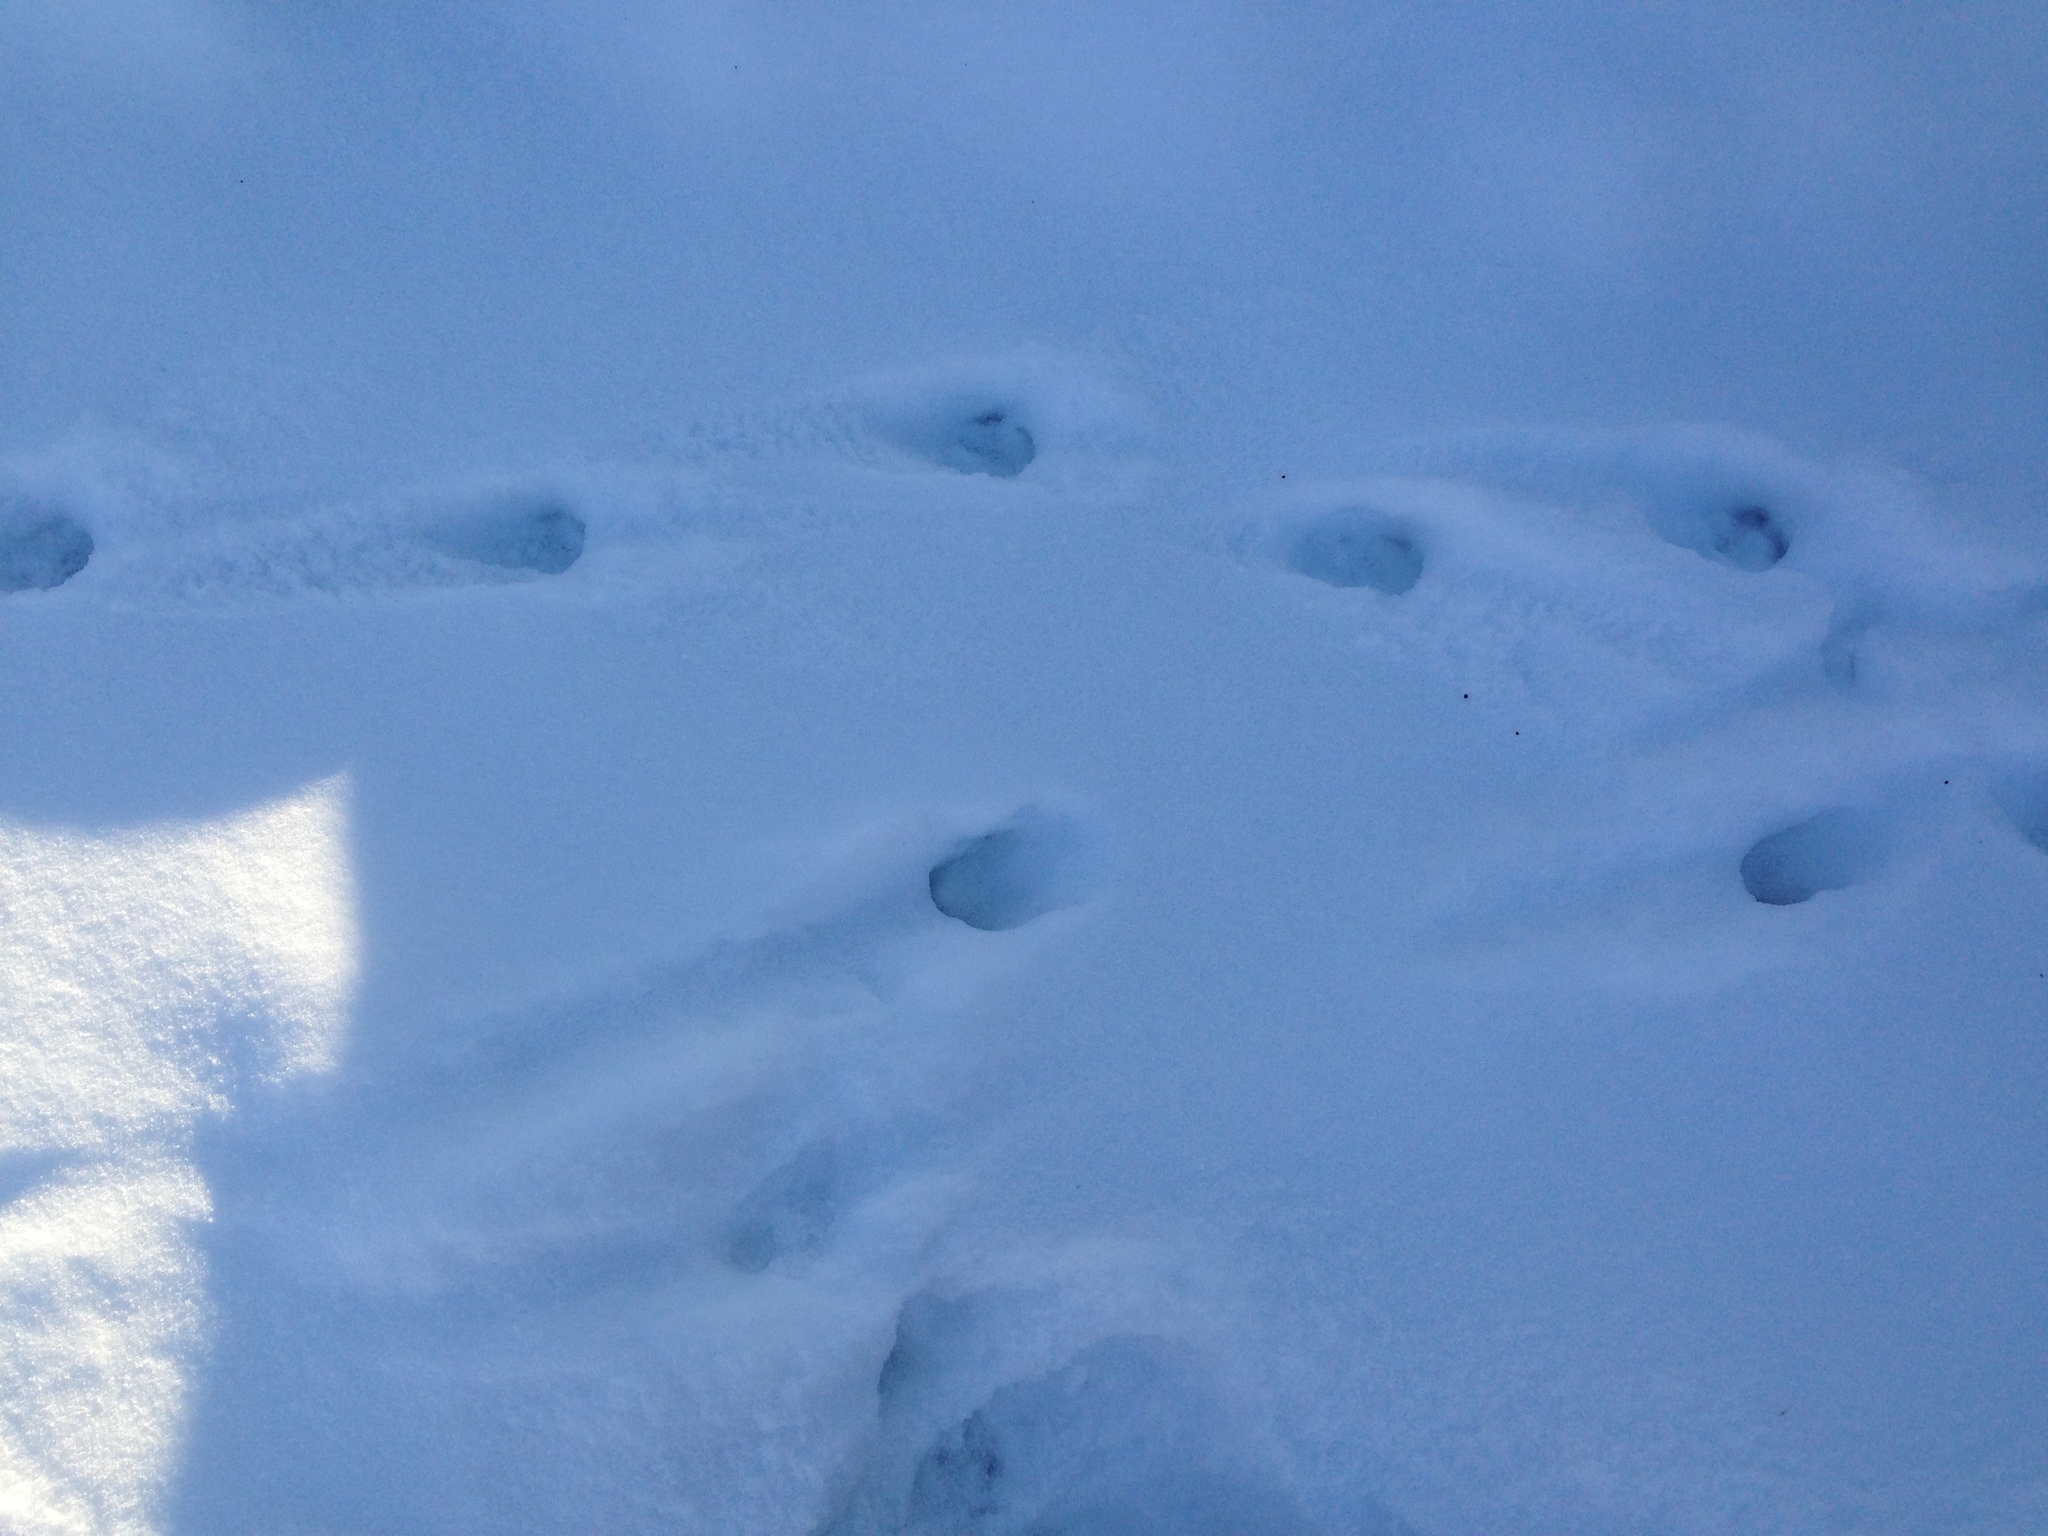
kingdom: Animalia
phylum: Chordata
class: Mammalia
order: Artiodactyla
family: Cervidae
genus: Odocoileus
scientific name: Odocoileus virginianus
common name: White-tailed deer
